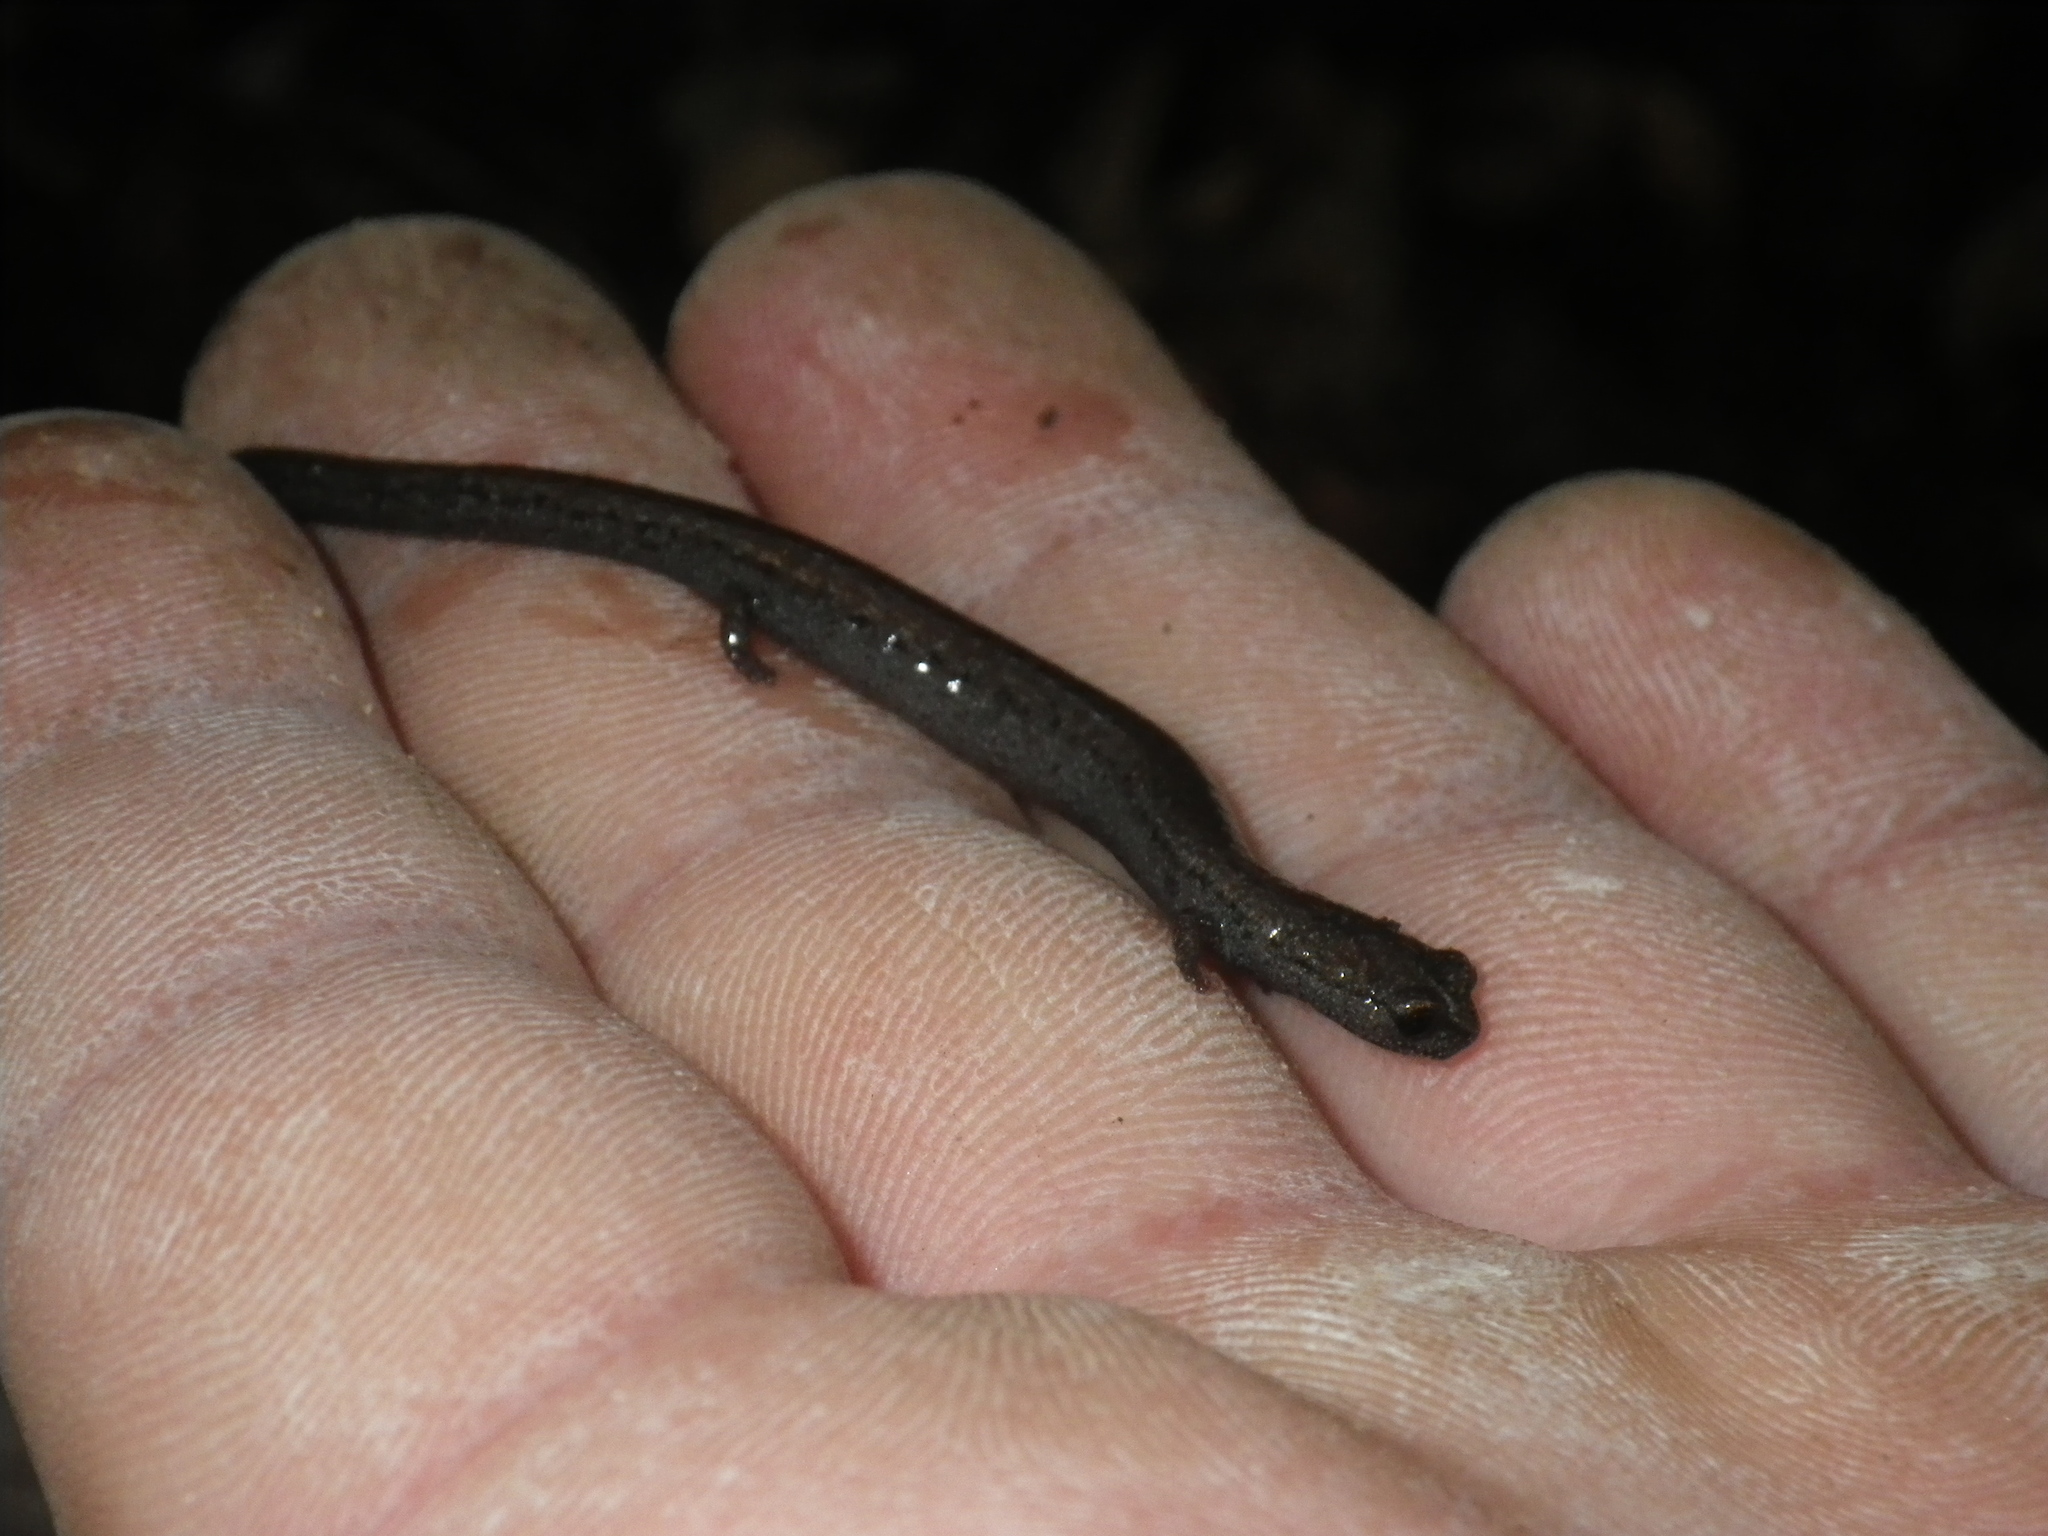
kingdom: Animalia
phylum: Chordata
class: Amphibia
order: Caudata
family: Plethodontidae
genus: Batrachoseps
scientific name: Batrachoseps nigriventris
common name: Black-bellied slender salamander
